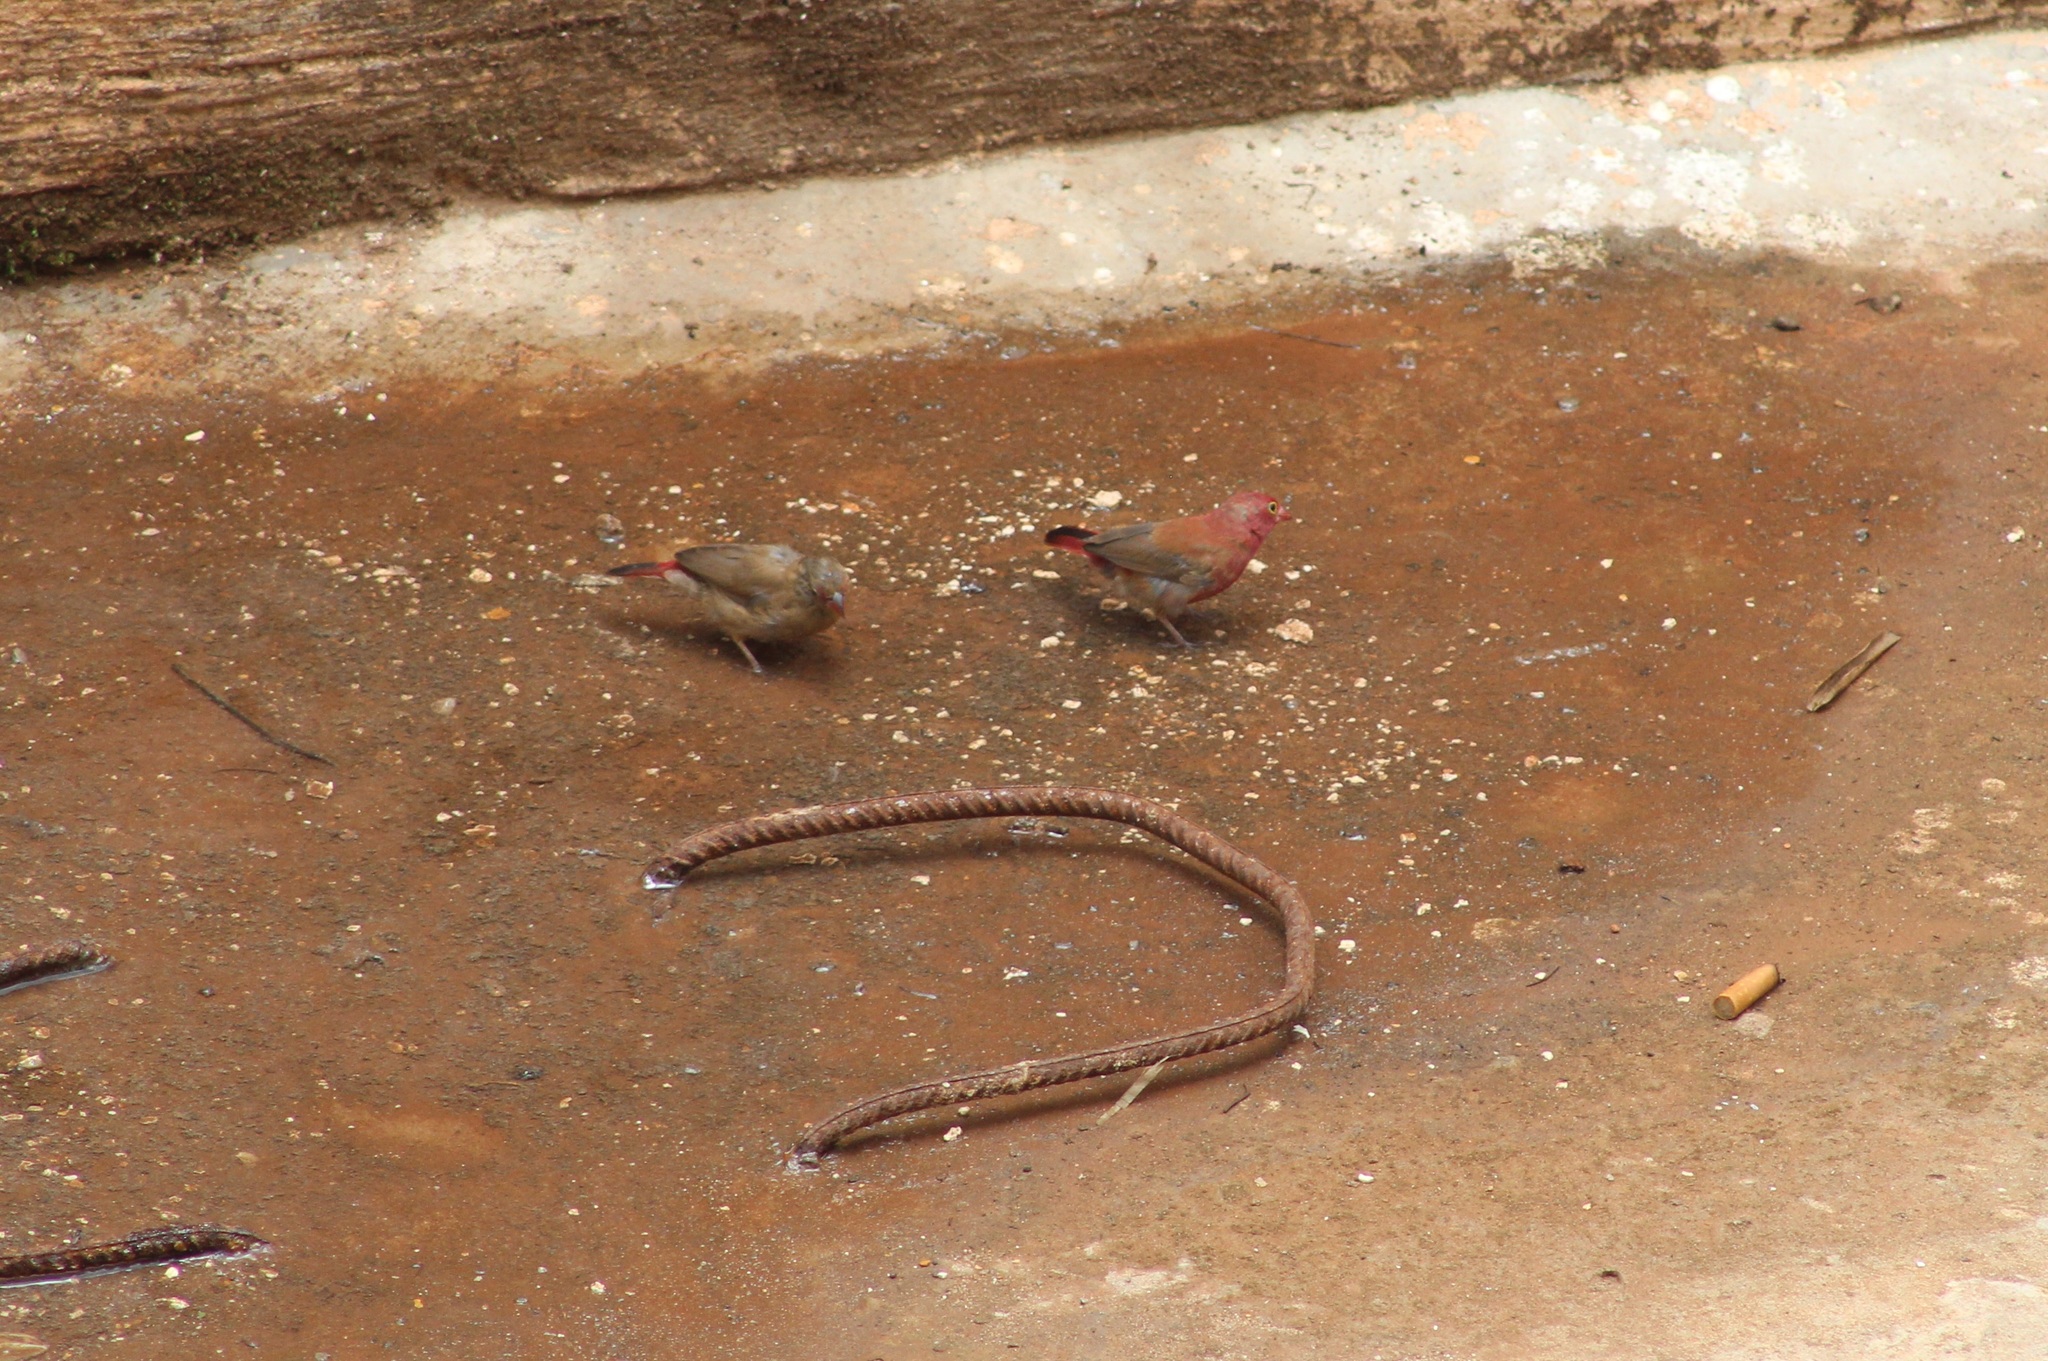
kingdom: Animalia
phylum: Chordata
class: Aves
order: Passeriformes
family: Estrildidae
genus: Lagonosticta
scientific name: Lagonosticta senegala
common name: Red-billed firefinch
